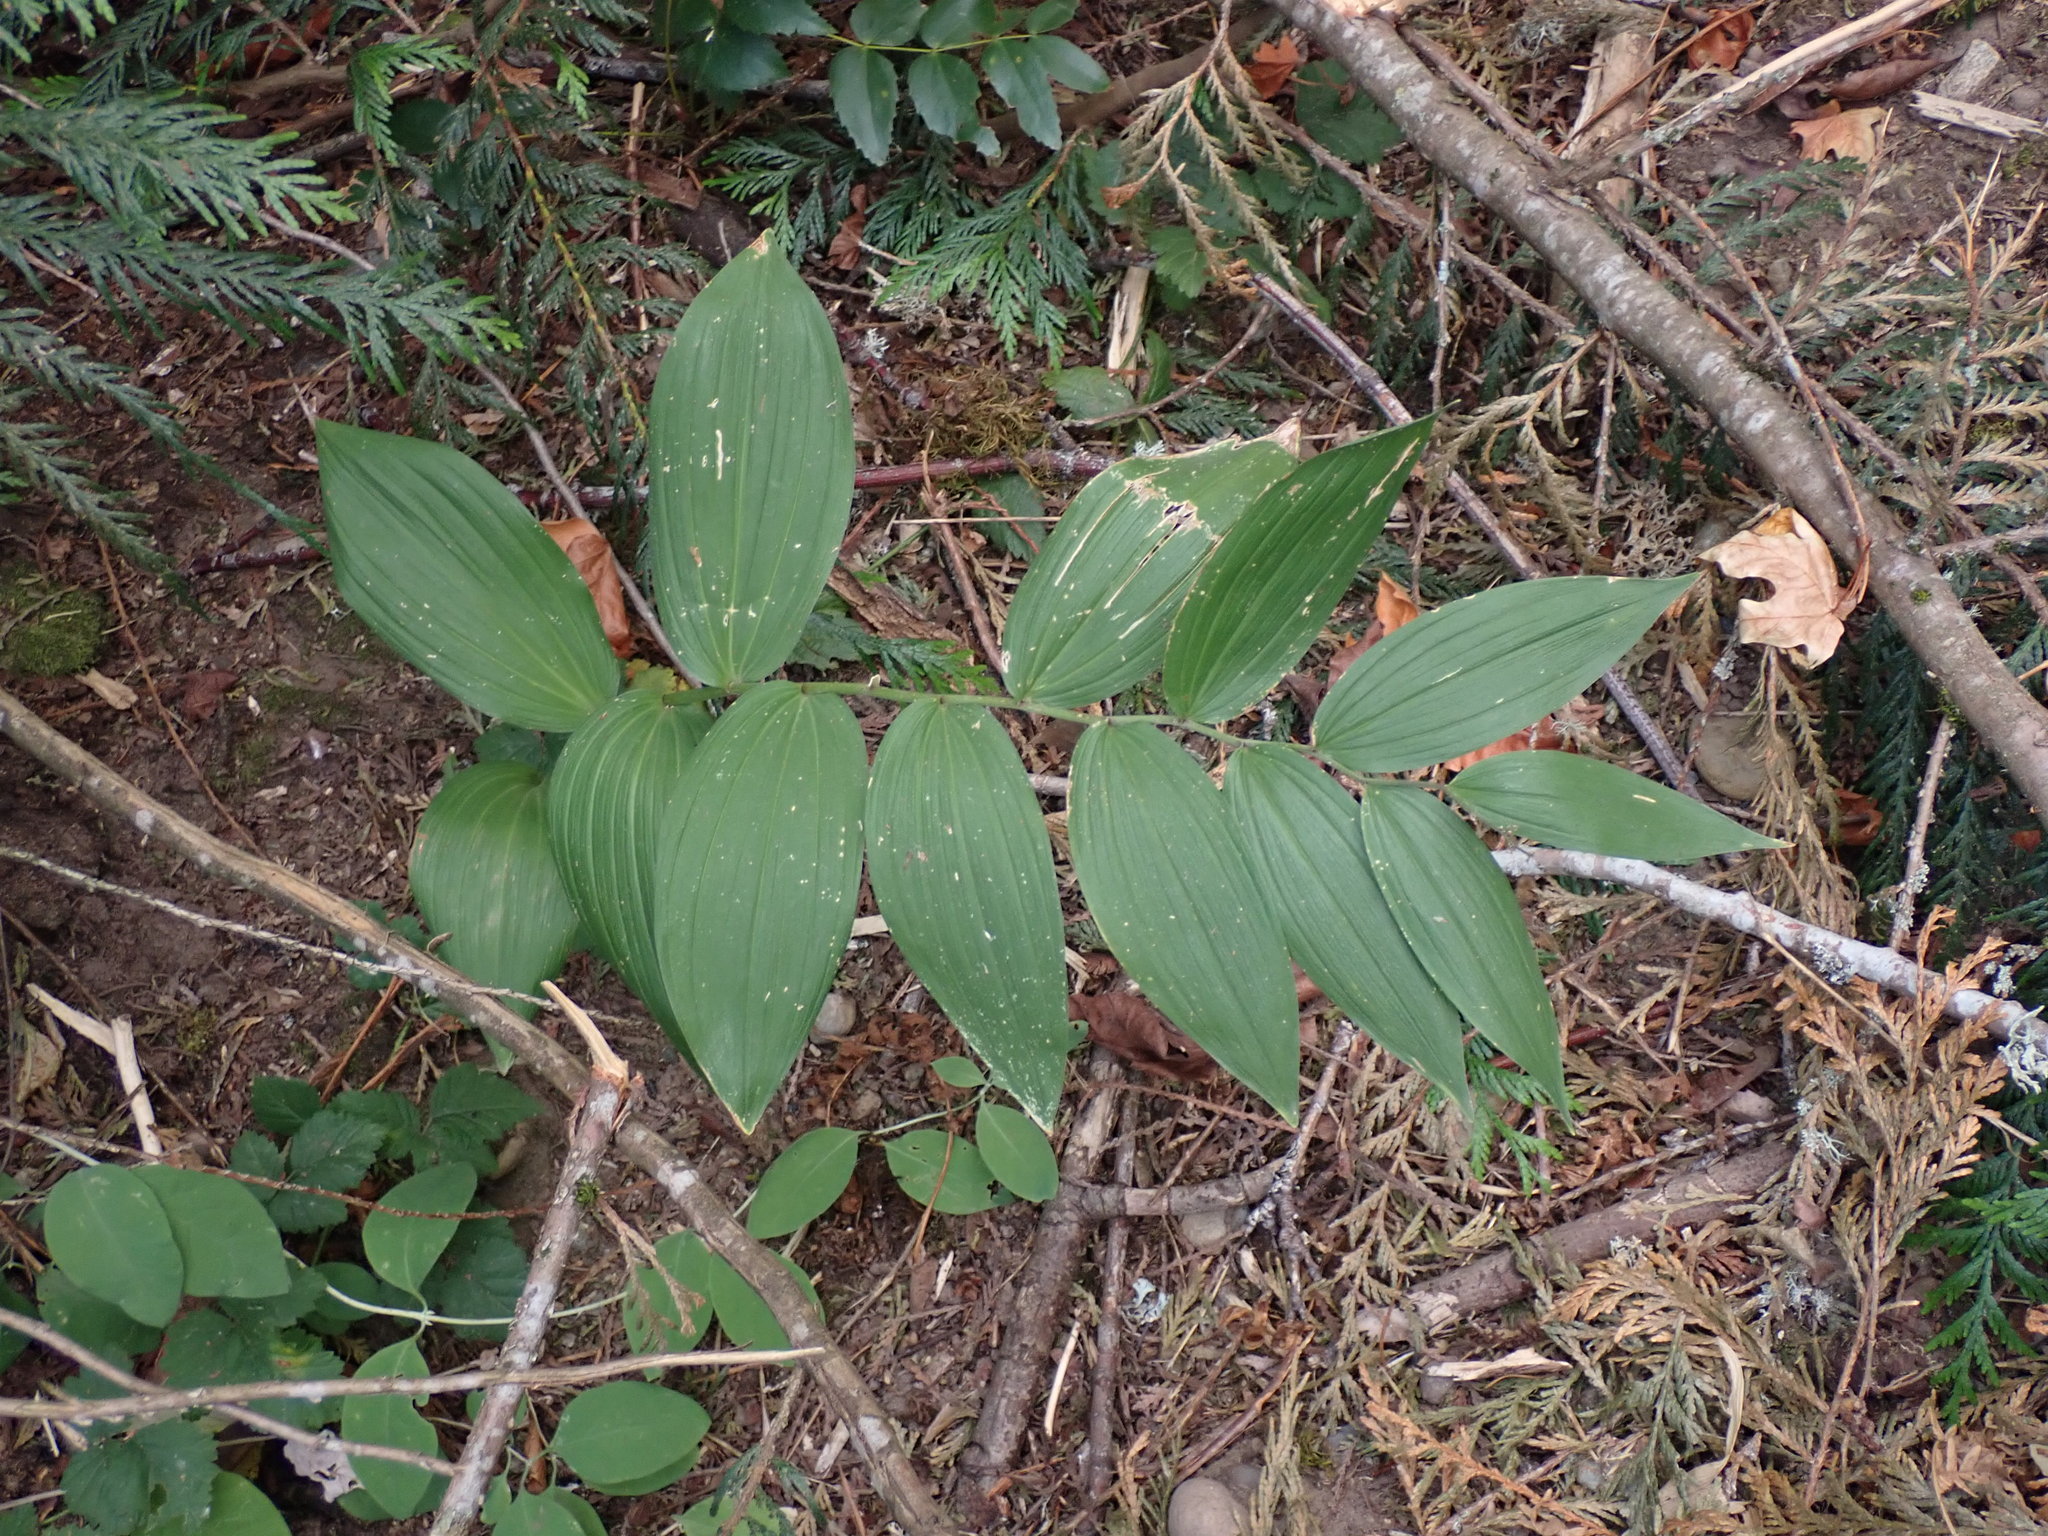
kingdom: Plantae
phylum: Tracheophyta
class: Liliopsida
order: Asparagales
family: Asparagaceae
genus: Maianthemum
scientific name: Maianthemum racemosum
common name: False spikenard
